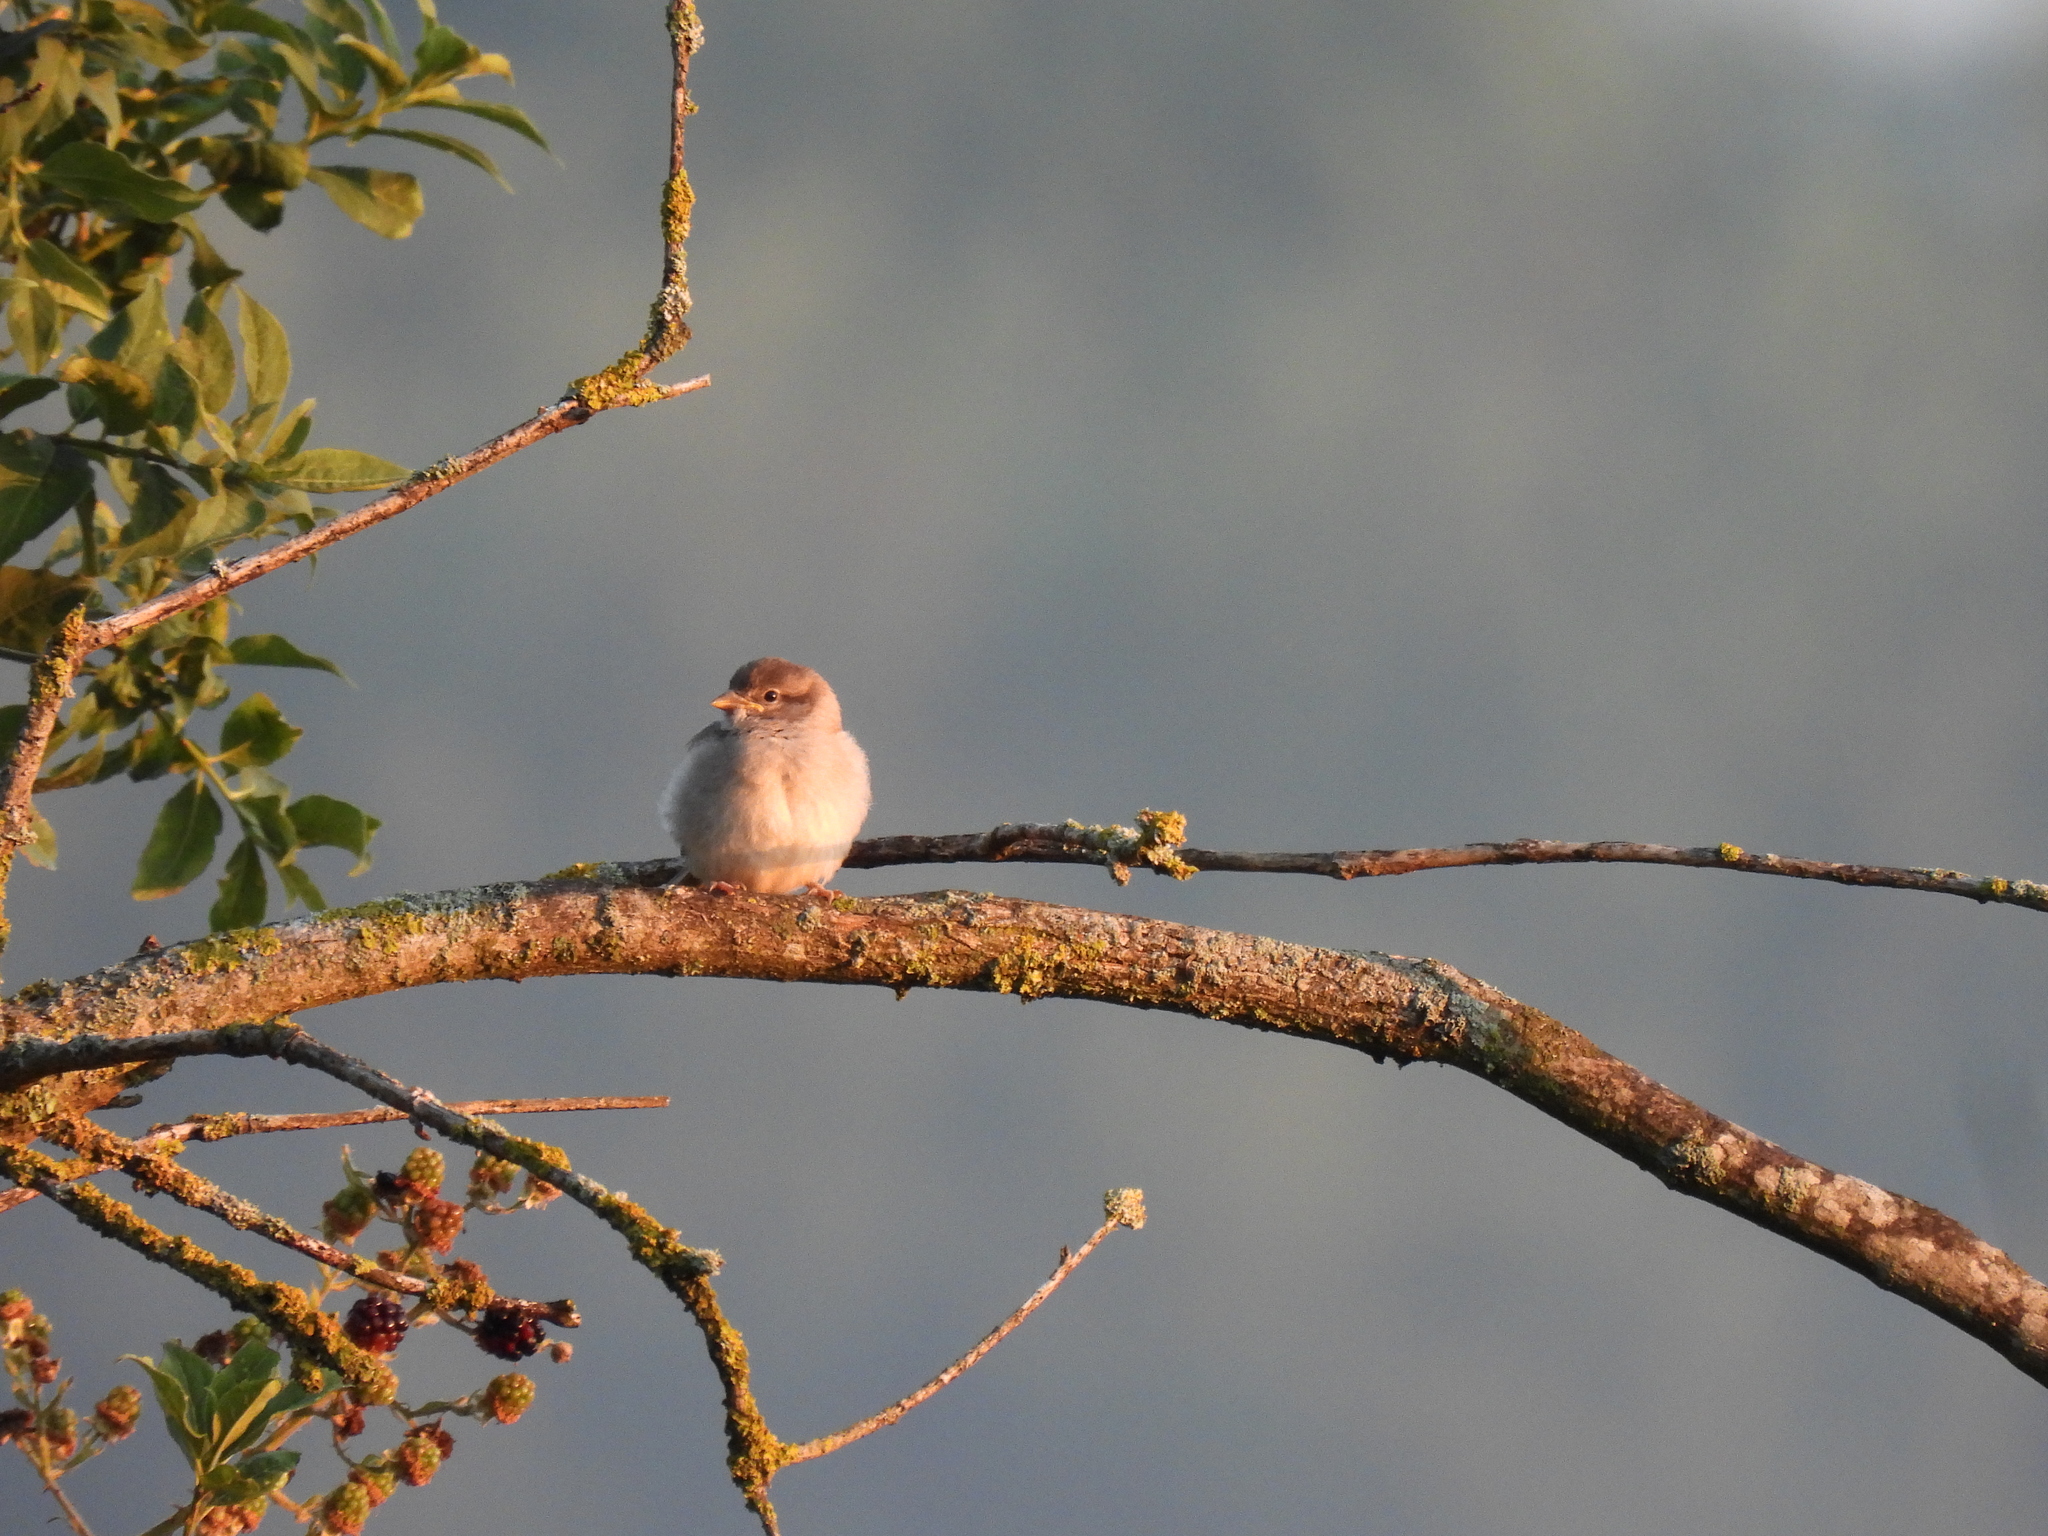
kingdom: Animalia
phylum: Chordata
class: Aves
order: Passeriformes
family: Passeridae
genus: Passer
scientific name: Passer domesticus
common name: House sparrow
